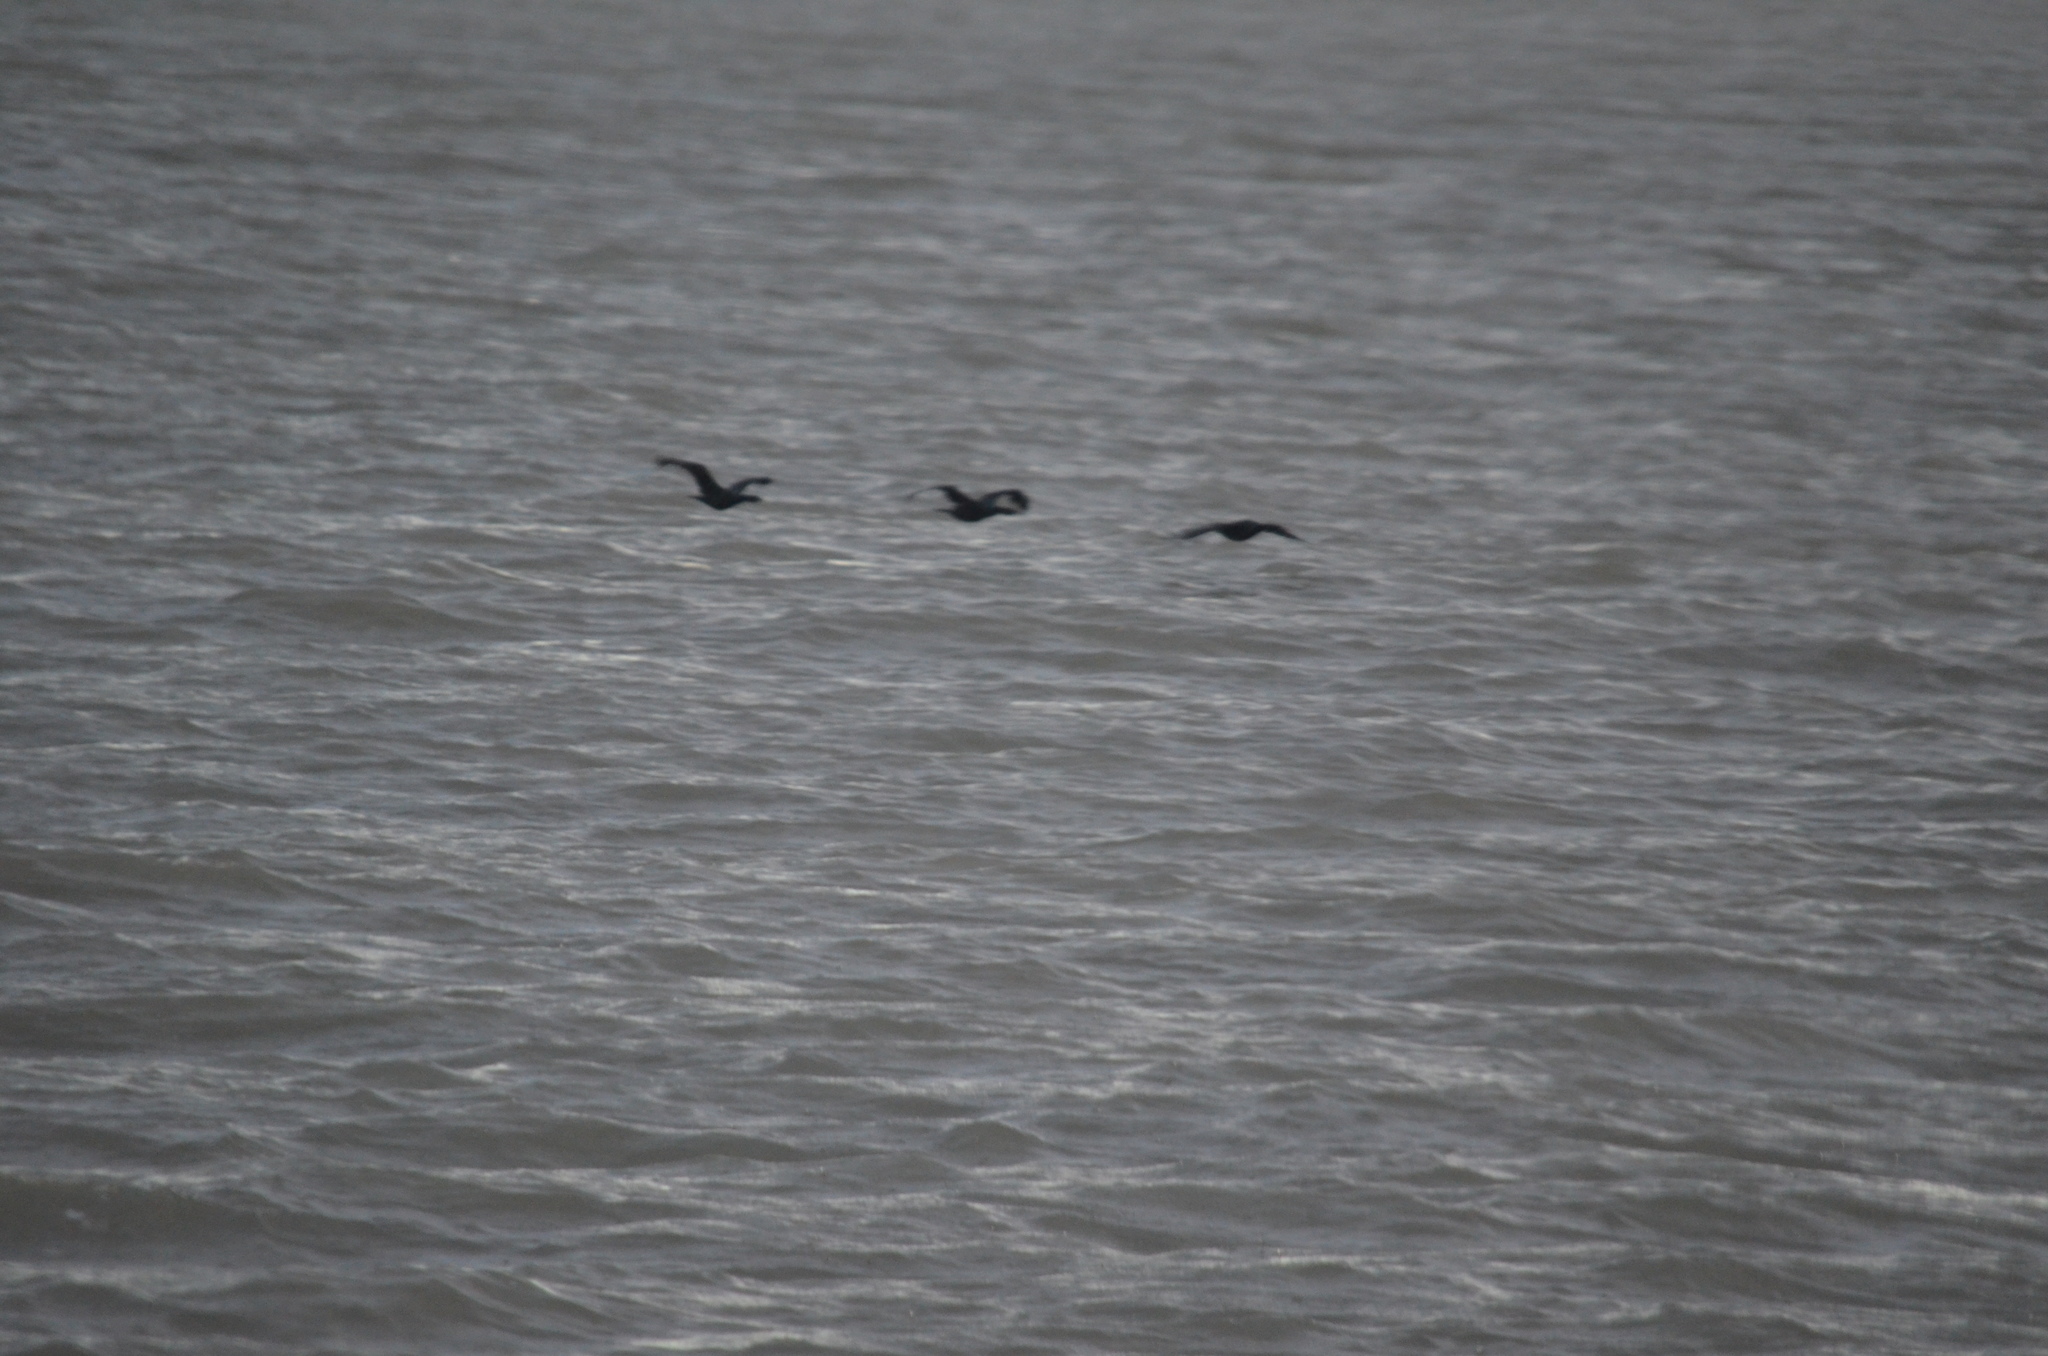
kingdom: Animalia
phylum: Chordata
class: Aves
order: Suliformes
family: Phalacrocoracidae
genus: Phalacrocorax
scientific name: Phalacrocorax pelagicus
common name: Pelagic cormorant
